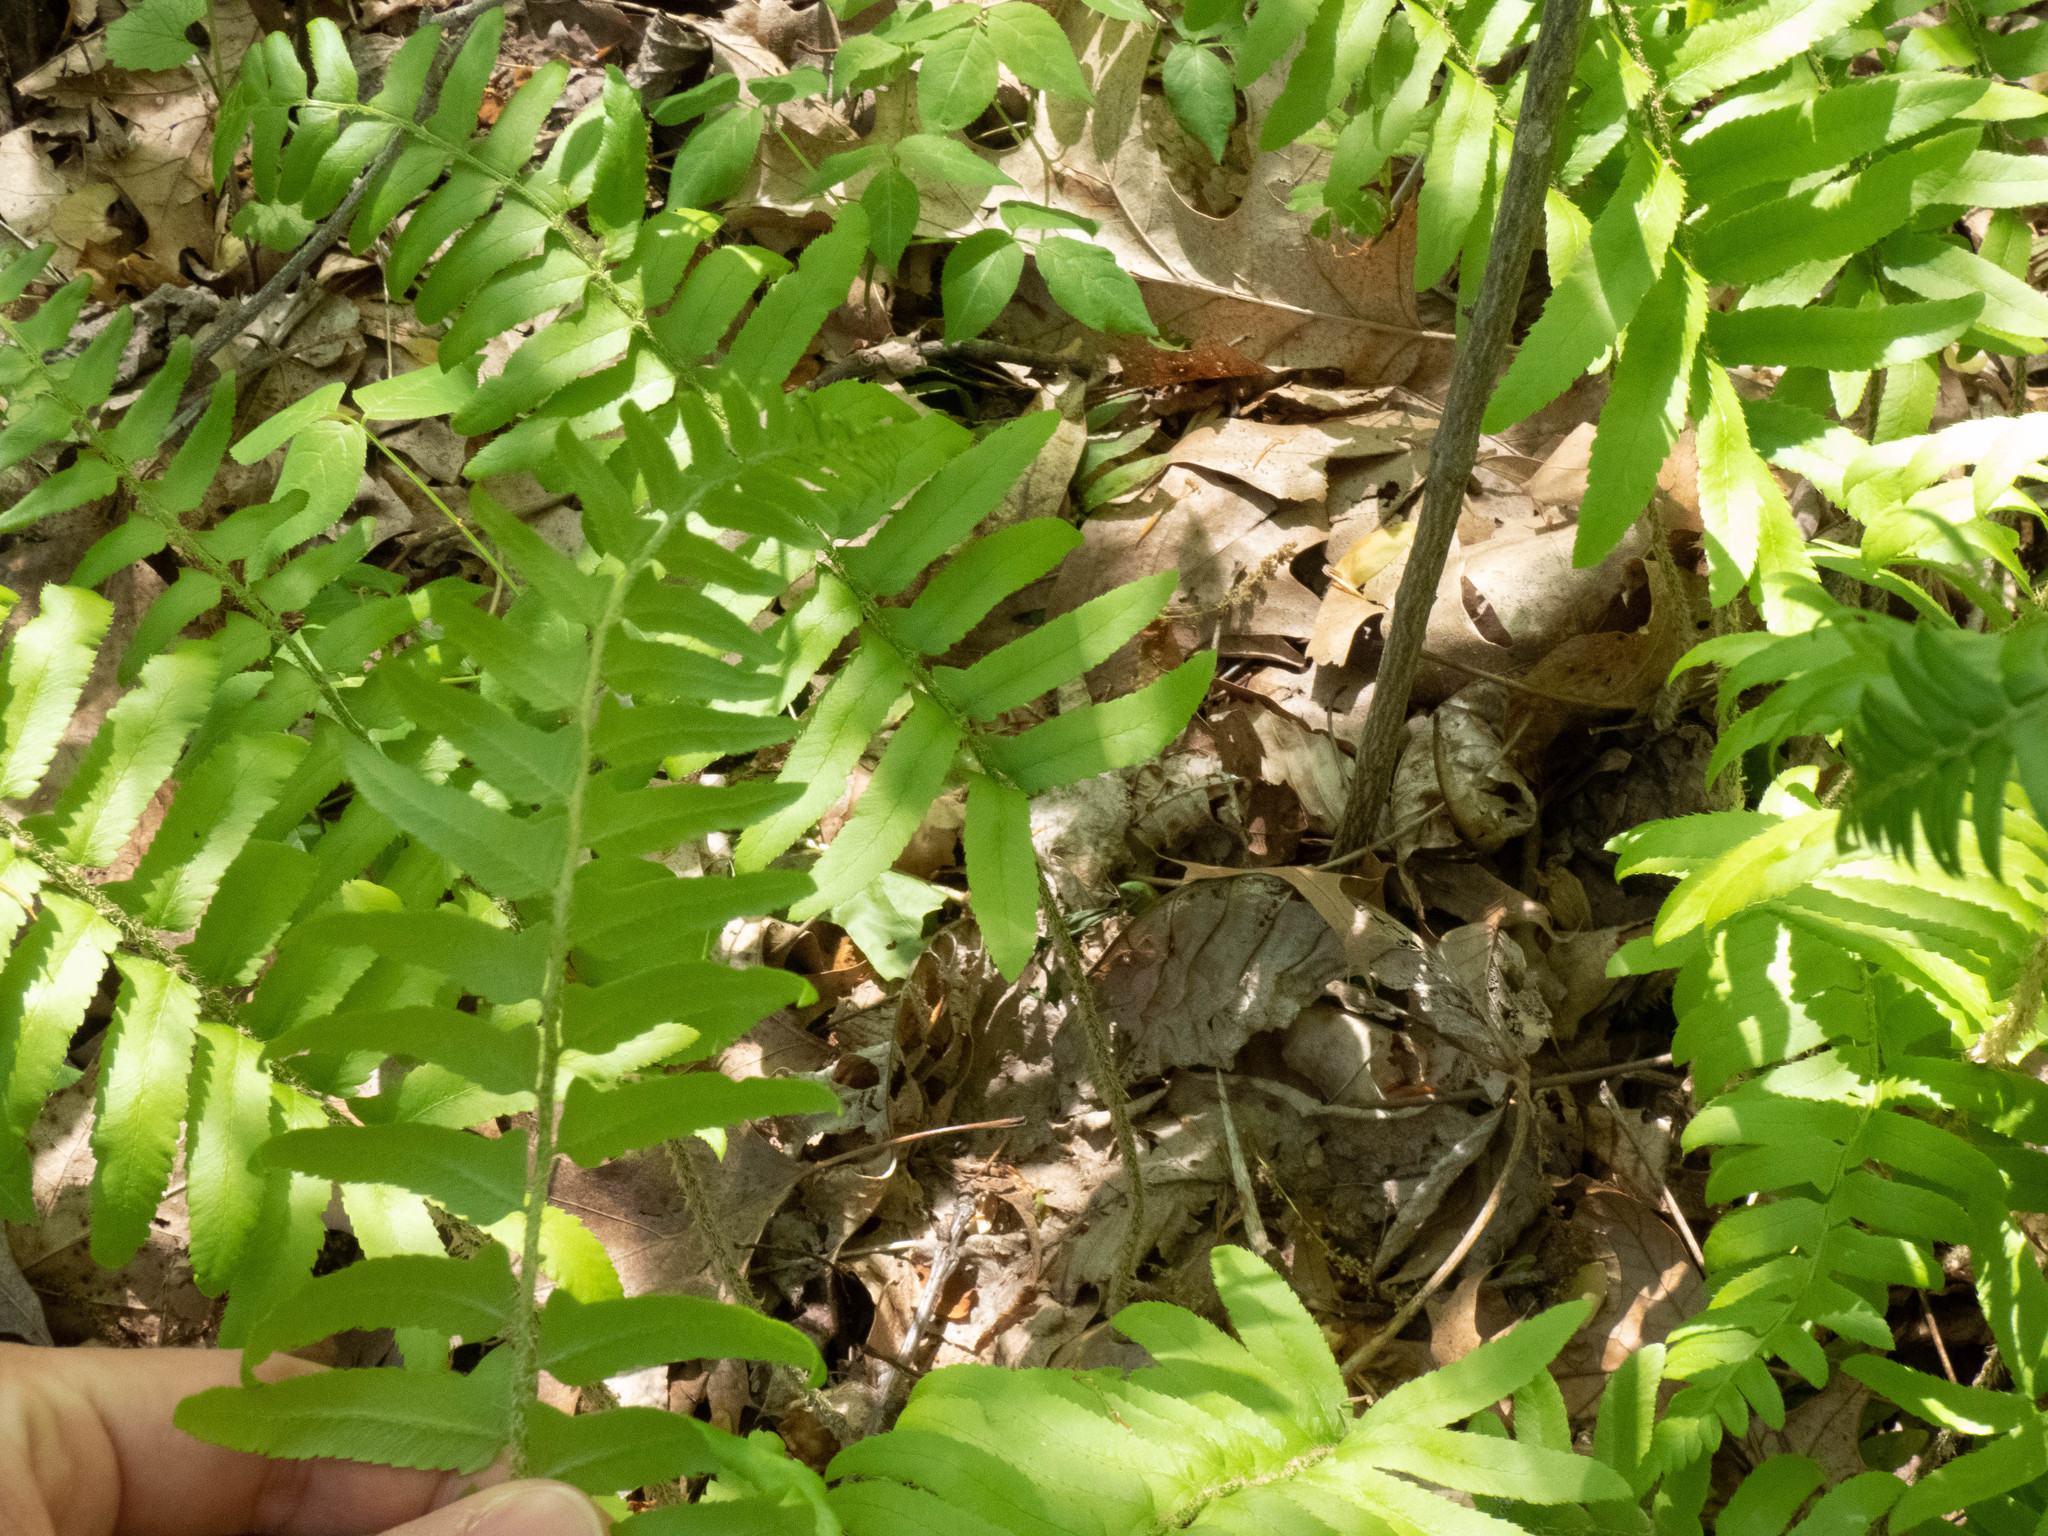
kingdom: Plantae
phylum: Tracheophyta
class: Polypodiopsida
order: Polypodiales
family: Dryopteridaceae
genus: Polystichum
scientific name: Polystichum acrostichoides
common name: Christmas fern
